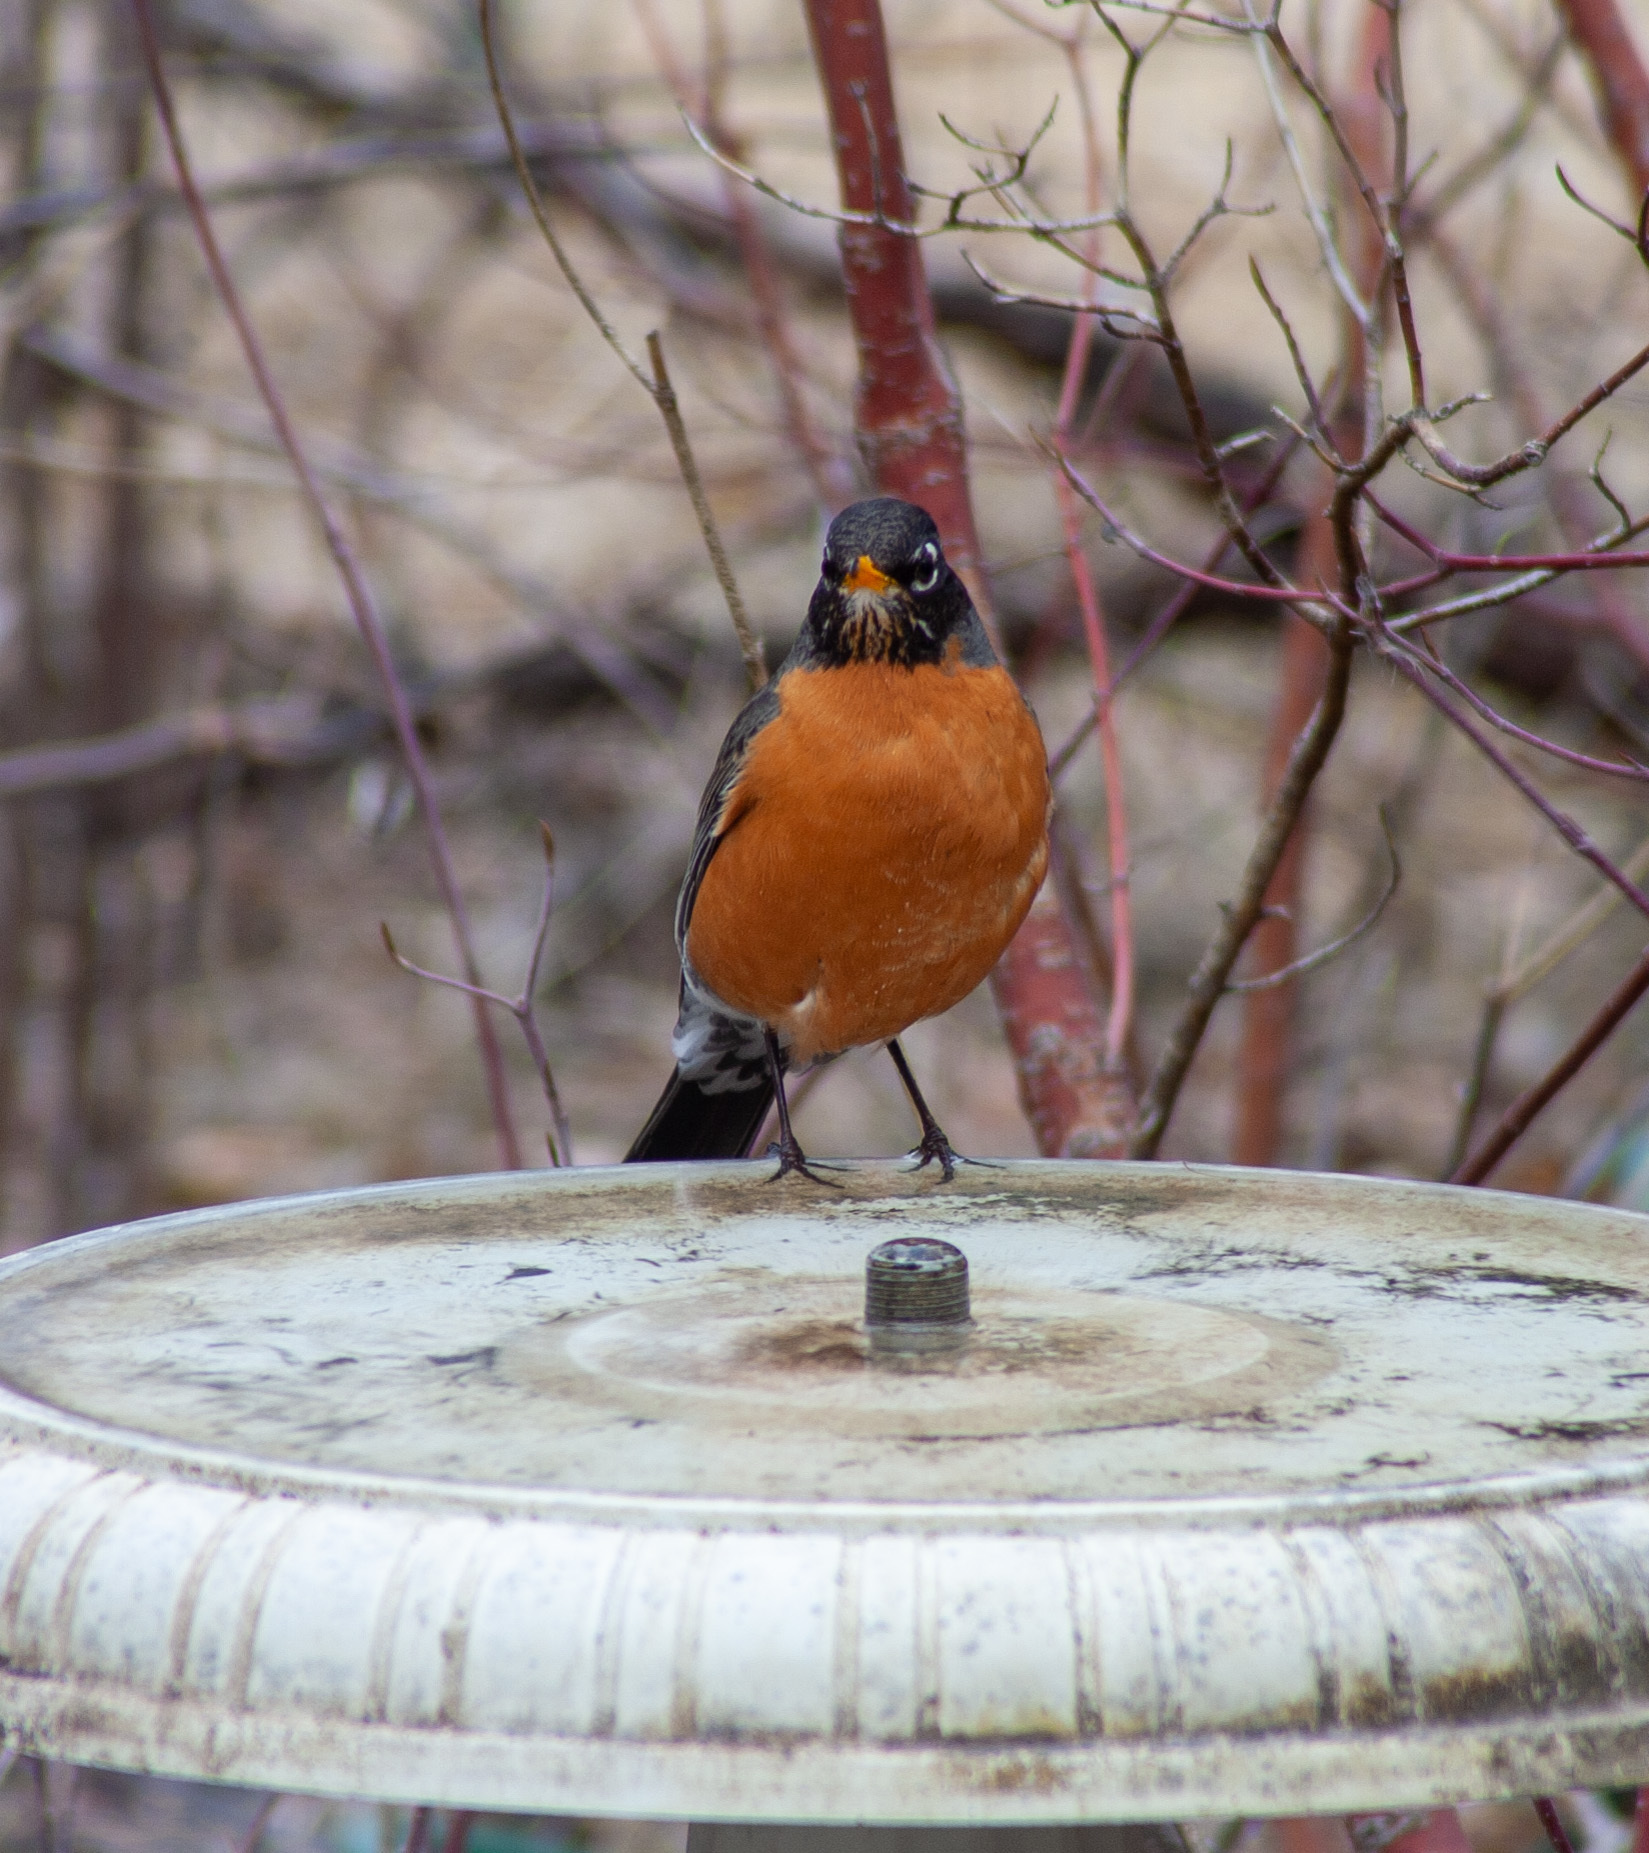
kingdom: Animalia
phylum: Chordata
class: Aves
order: Passeriformes
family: Turdidae
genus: Turdus
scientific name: Turdus migratorius
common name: American robin
